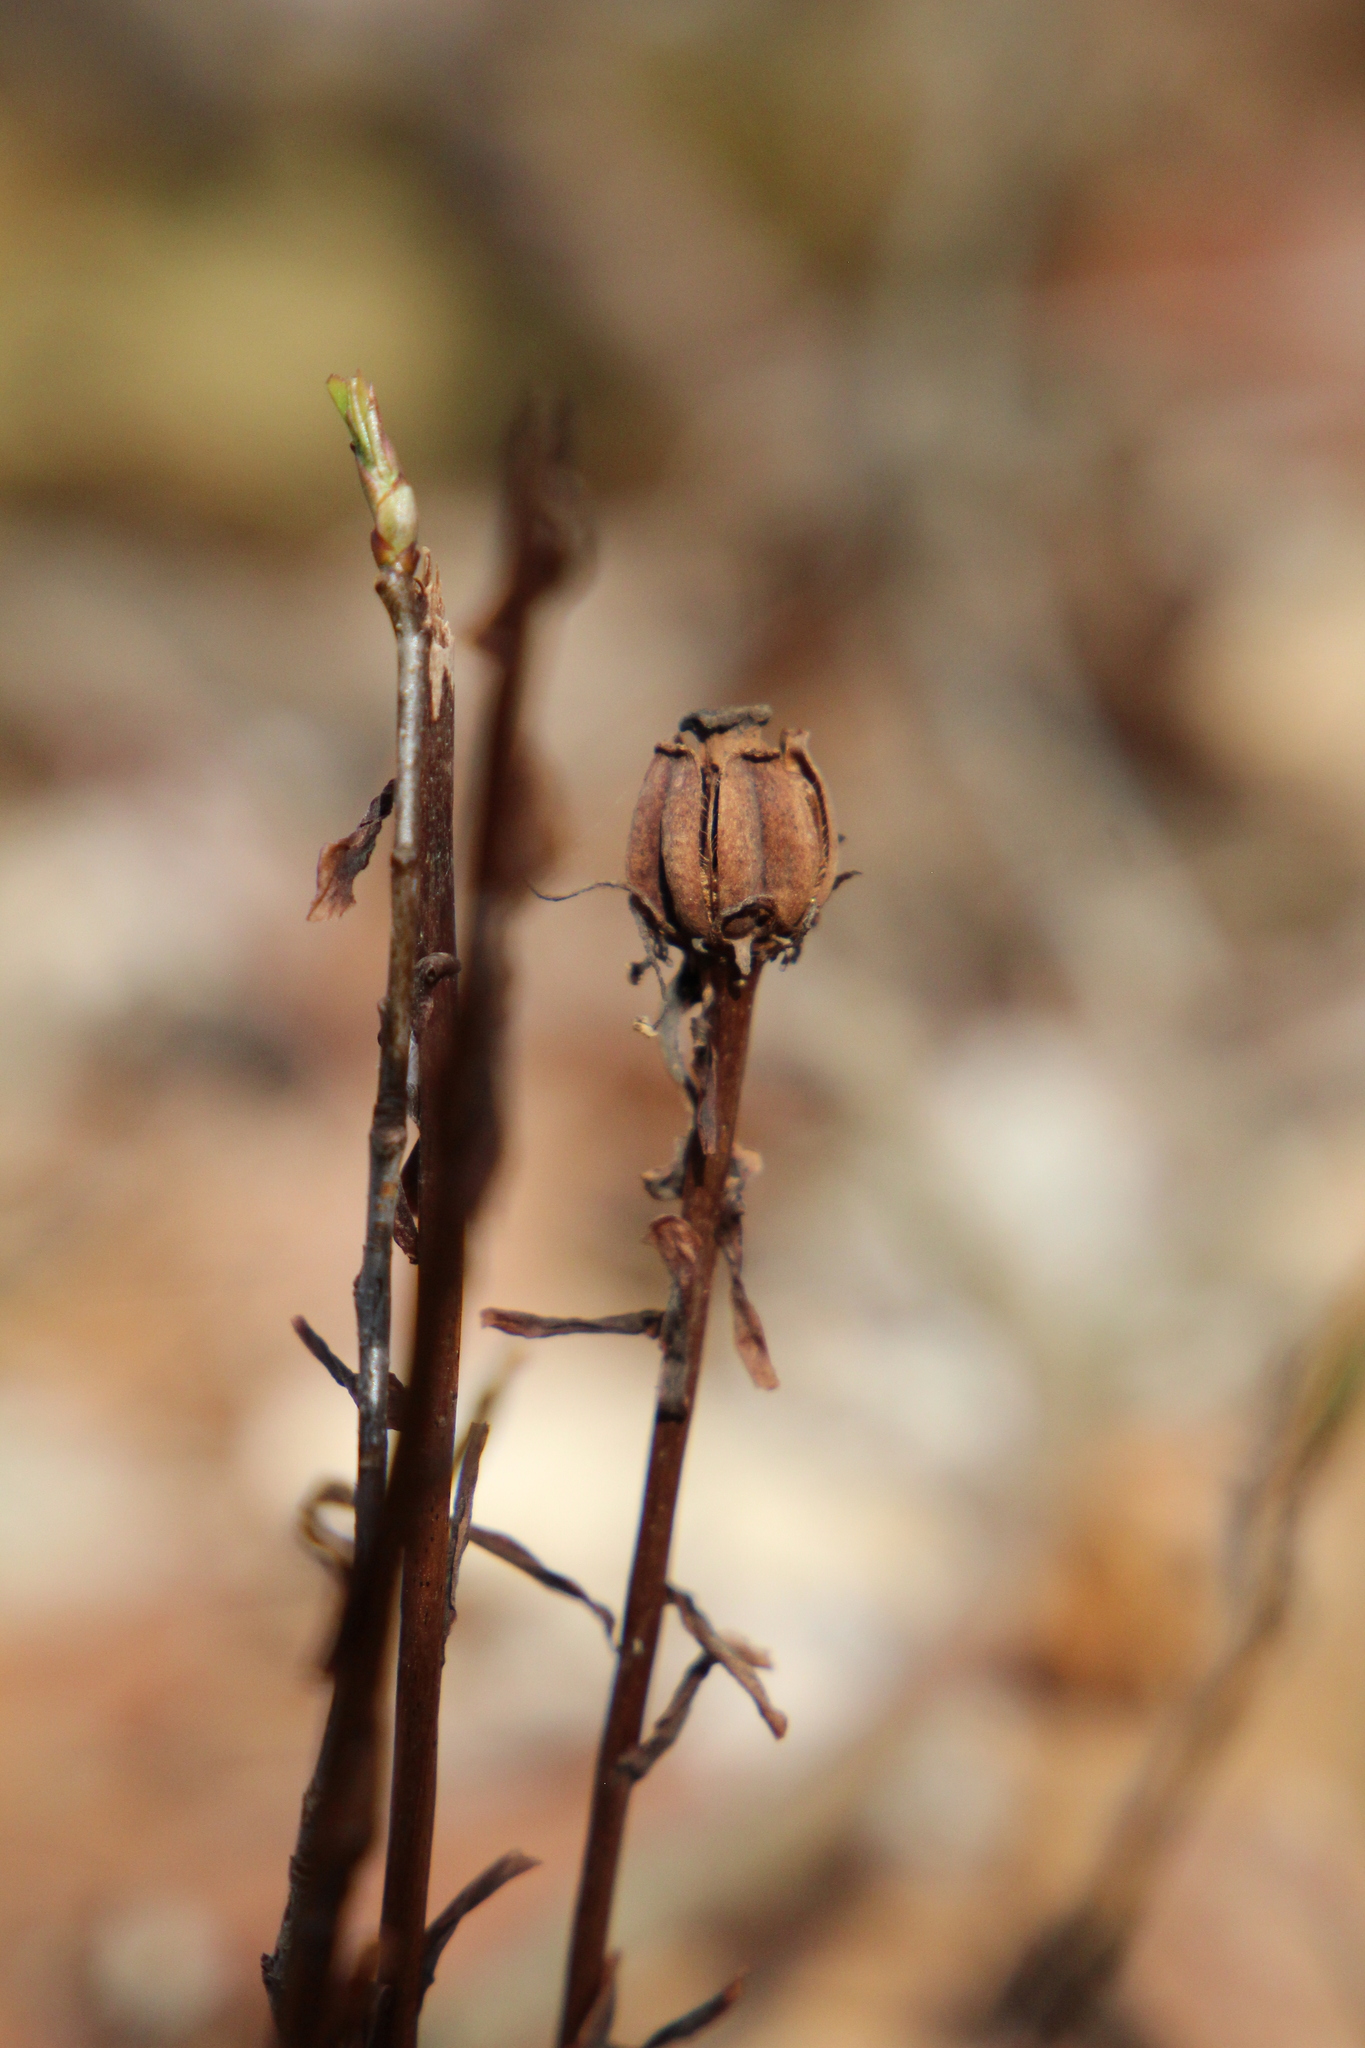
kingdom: Plantae
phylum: Tracheophyta
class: Magnoliopsida
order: Ericales
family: Ericaceae
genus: Monotropa
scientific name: Monotropa uniflora
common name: Convulsion root
